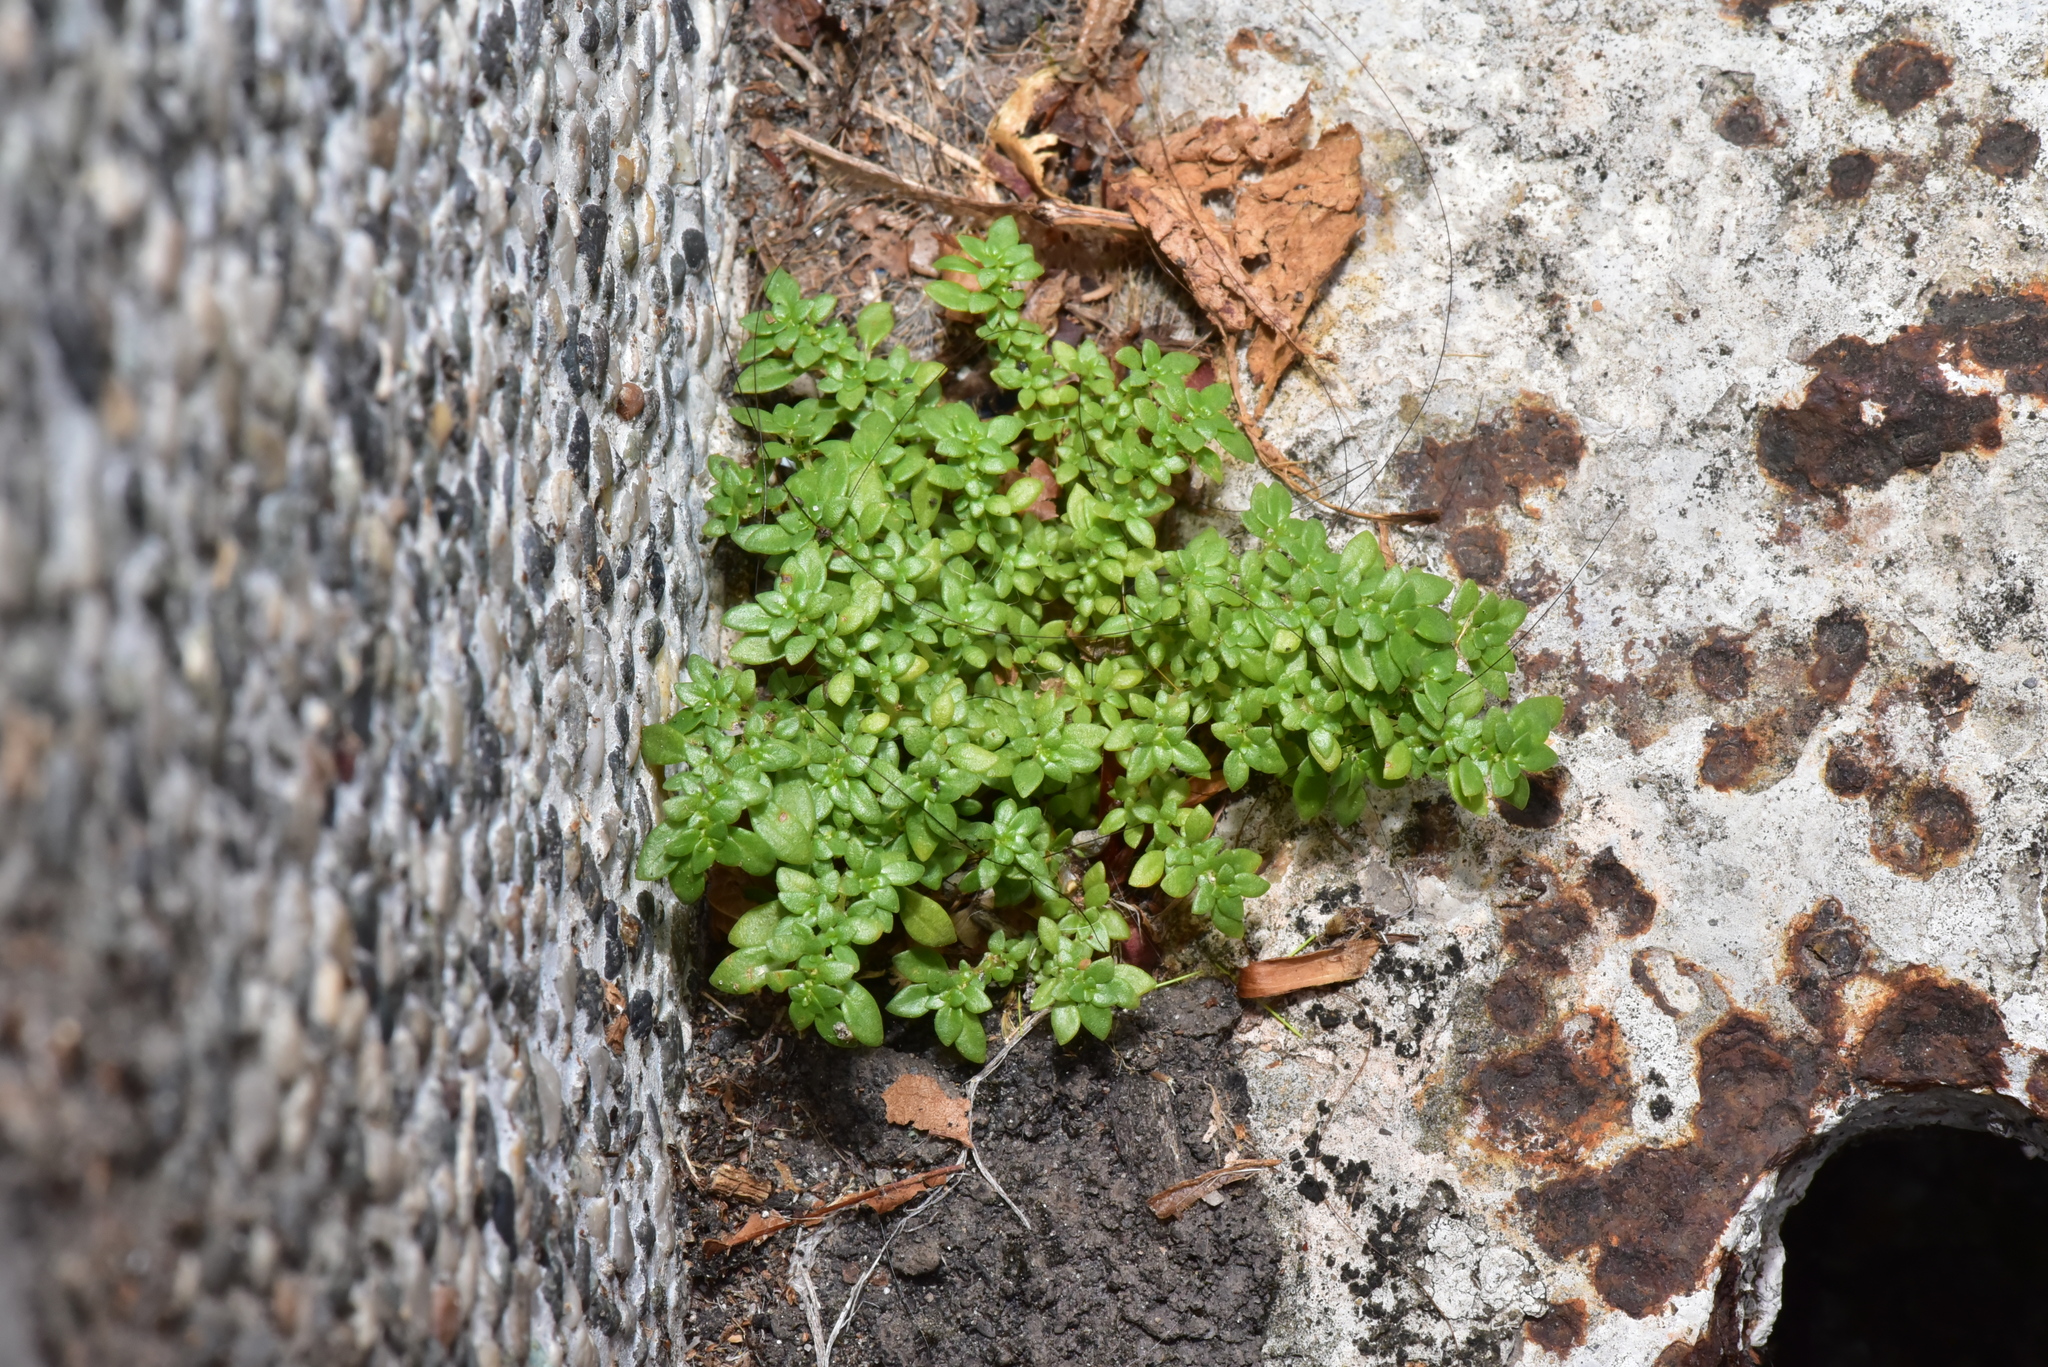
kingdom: Plantae
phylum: Tracheophyta
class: Magnoliopsida
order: Rosales
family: Urticaceae
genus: Pilea
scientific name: Pilea microphylla
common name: Artillery-plant
